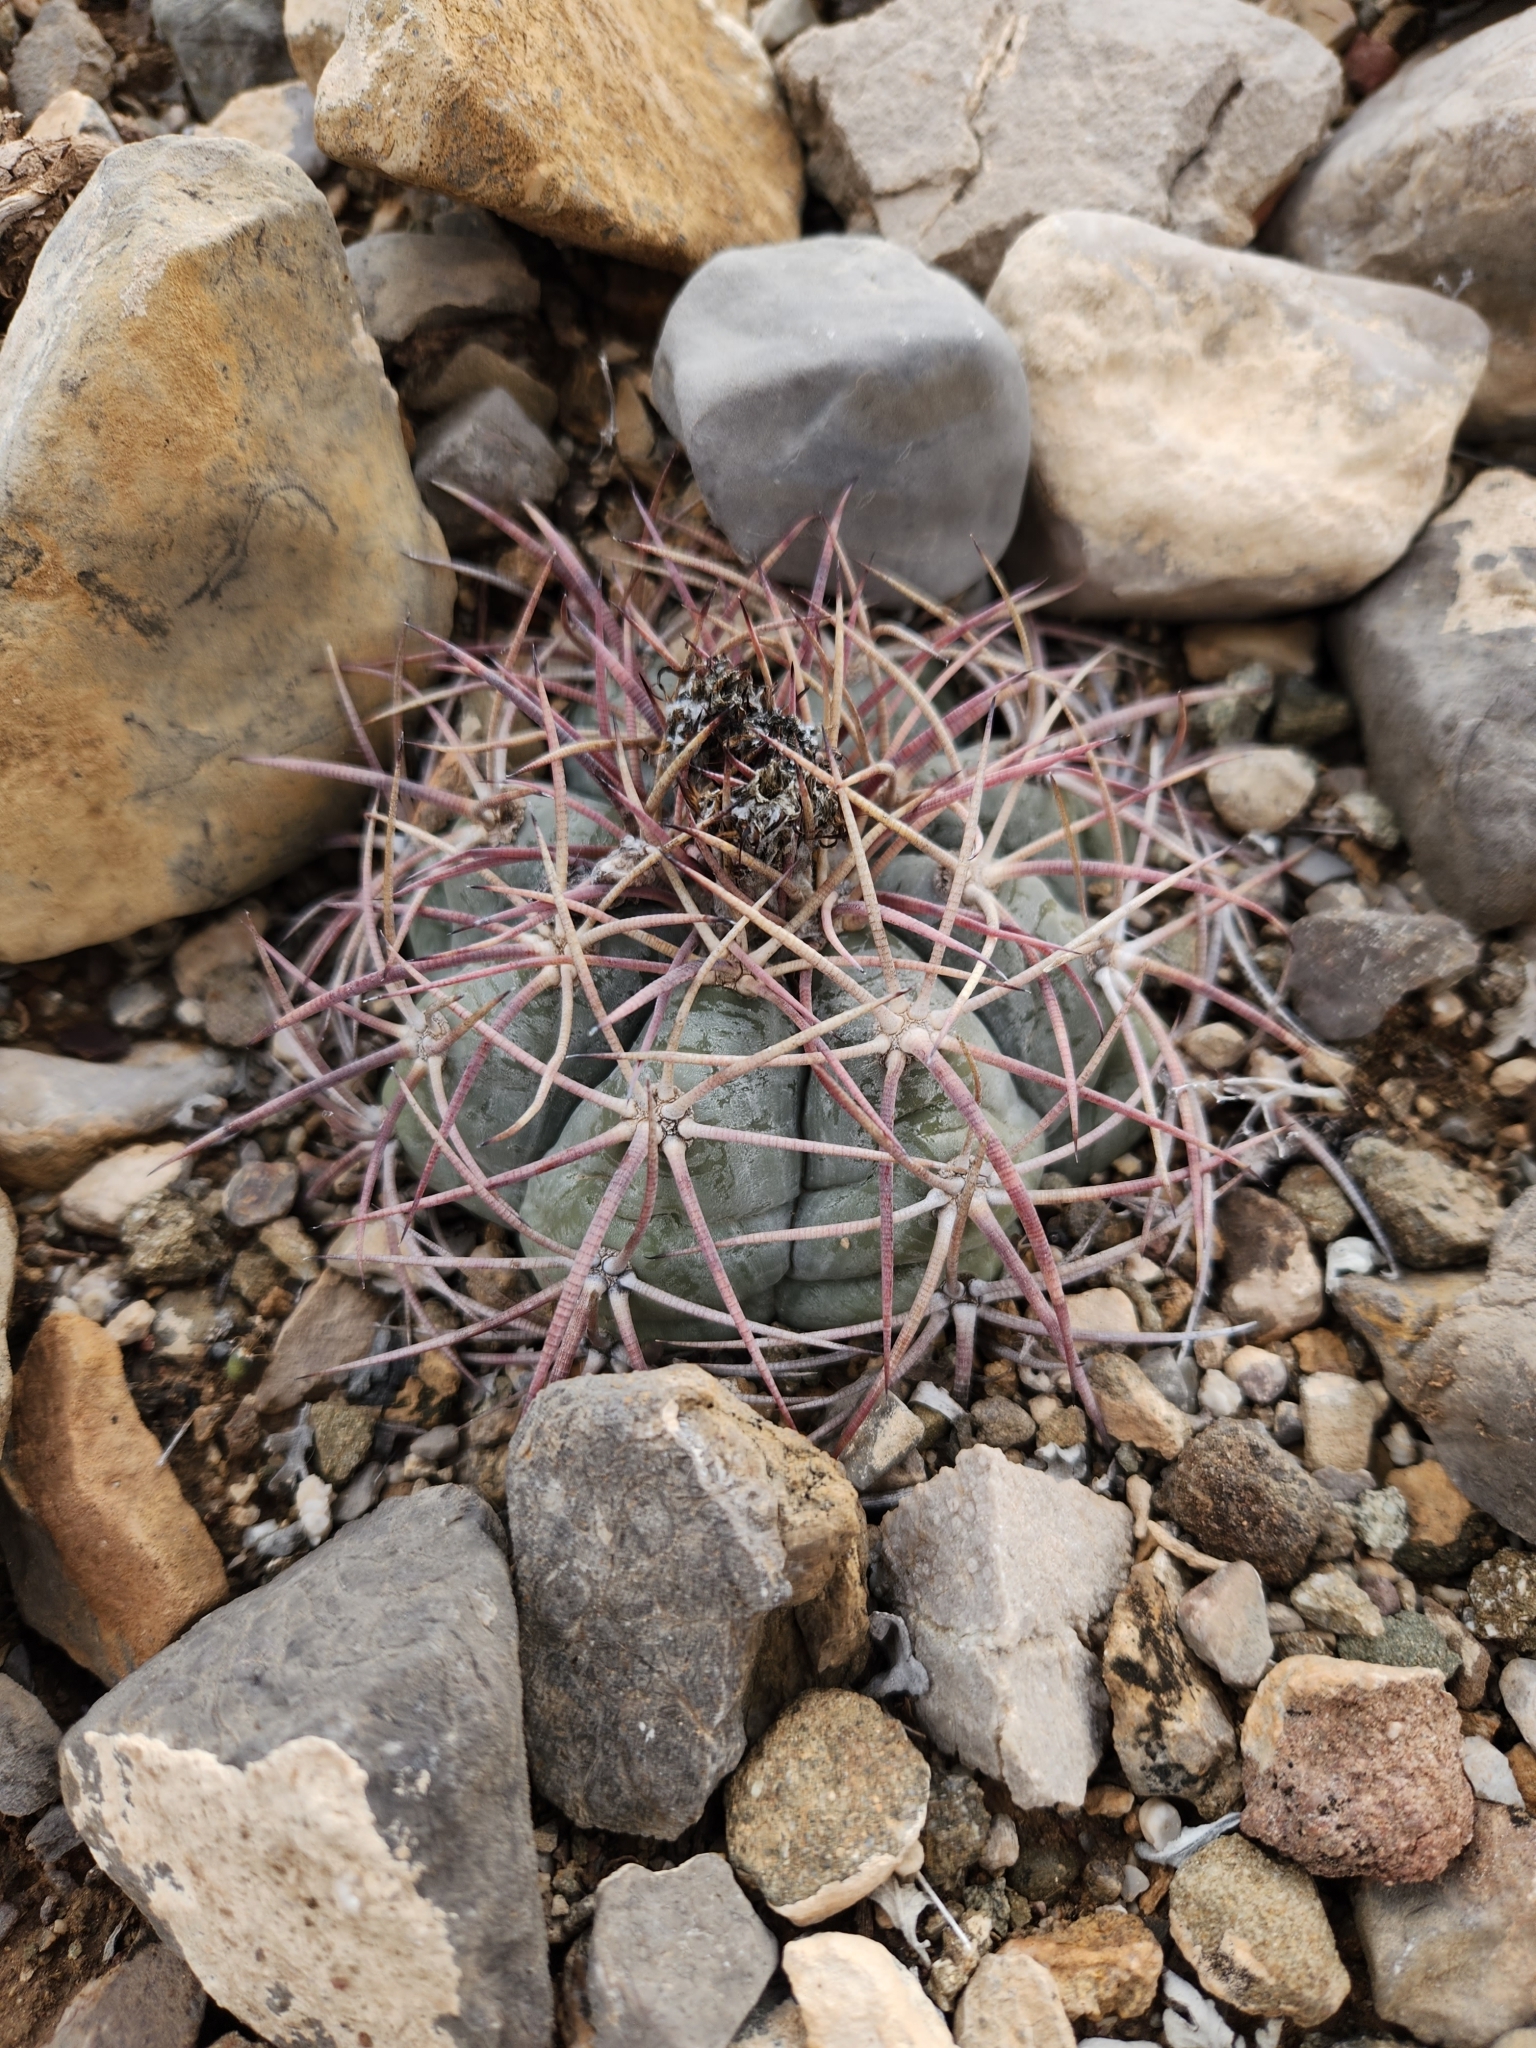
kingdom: Plantae
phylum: Tracheophyta
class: Magnoliopsida
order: Caryophyllales
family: Cactaceae
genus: Echinocactus
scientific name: Echinocactus horizonthalonius
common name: Devilshead
